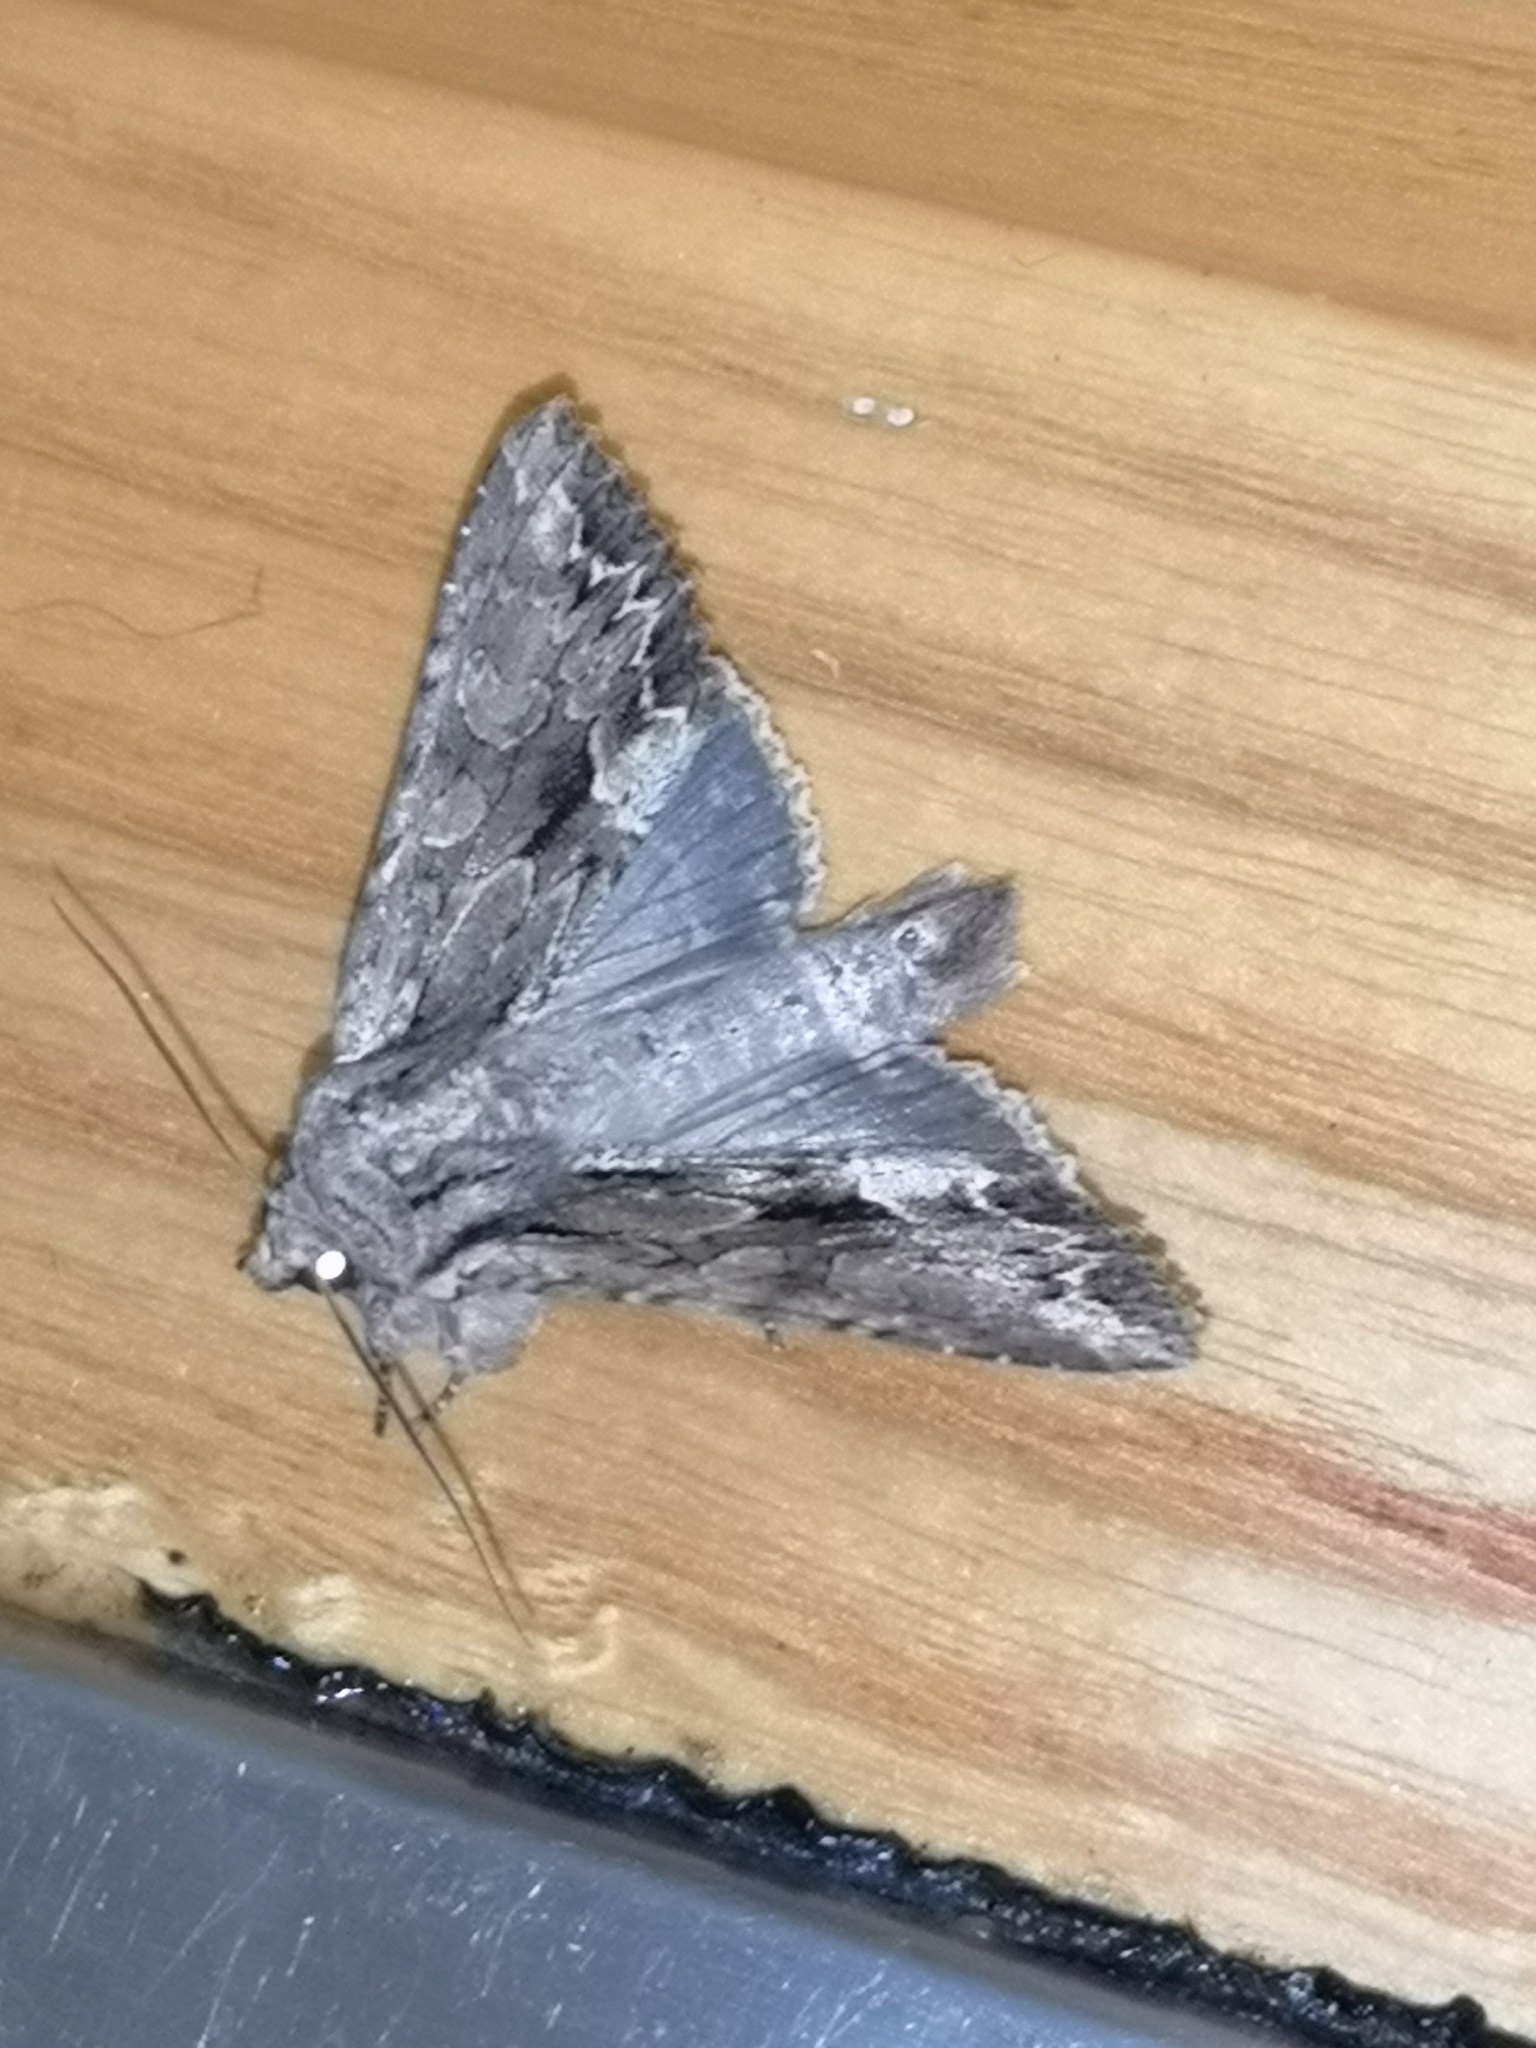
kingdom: Animalia
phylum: Arthropoda
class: Insecta
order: Lepidoptera
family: Noctuidae
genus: Apamea
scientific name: Apamea monoglypha
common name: Dark arches
